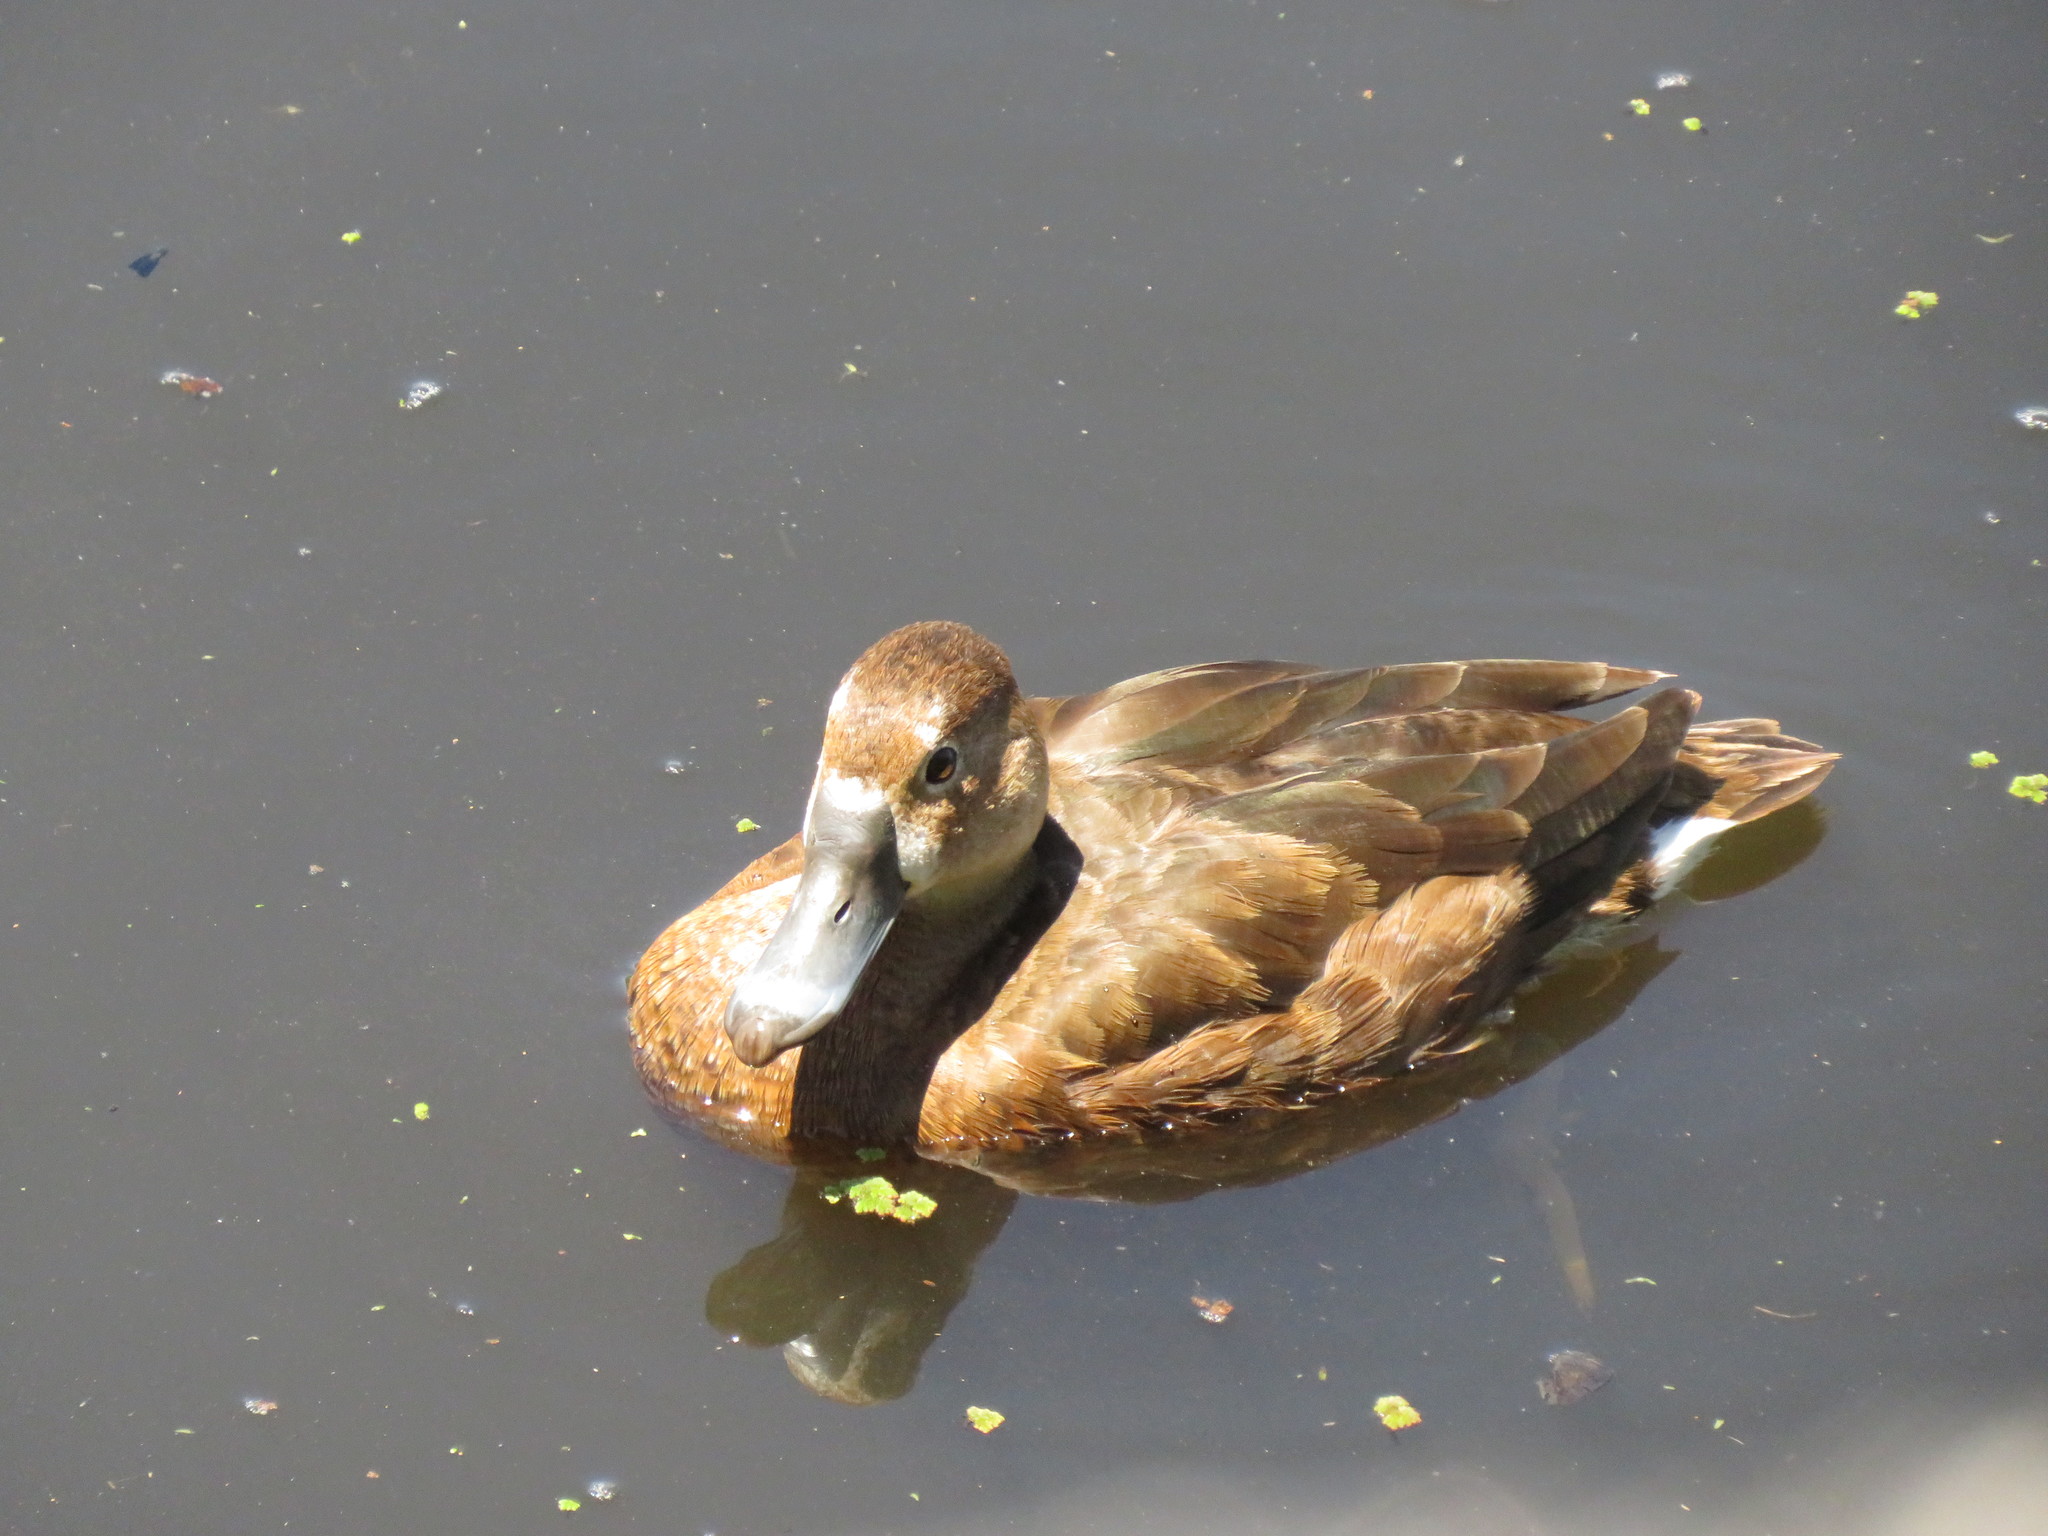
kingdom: Animalia
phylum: Chordata
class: Aves
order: Anseriformes
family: Anatidae
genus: Netta
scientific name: Netta peposaca
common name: Rosy-billed pochard
